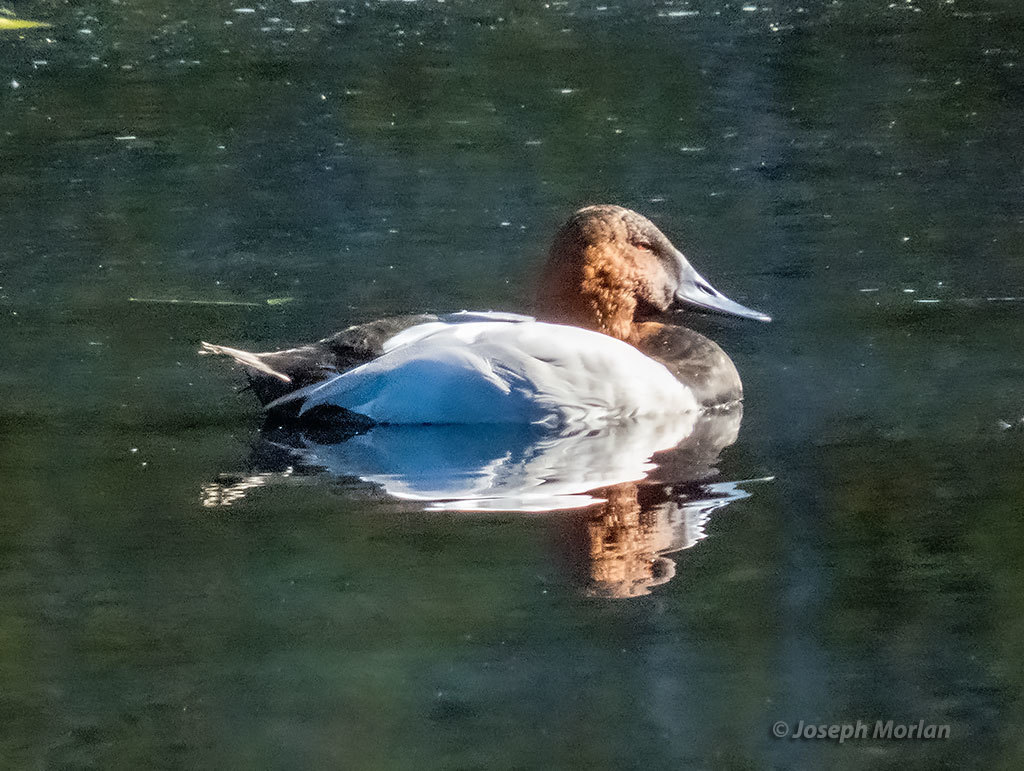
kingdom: Animalia
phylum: Chordata
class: Aves
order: Anseriformes
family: Anatidae
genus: Aythya
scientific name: Aythya valisineria
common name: Canvasback
